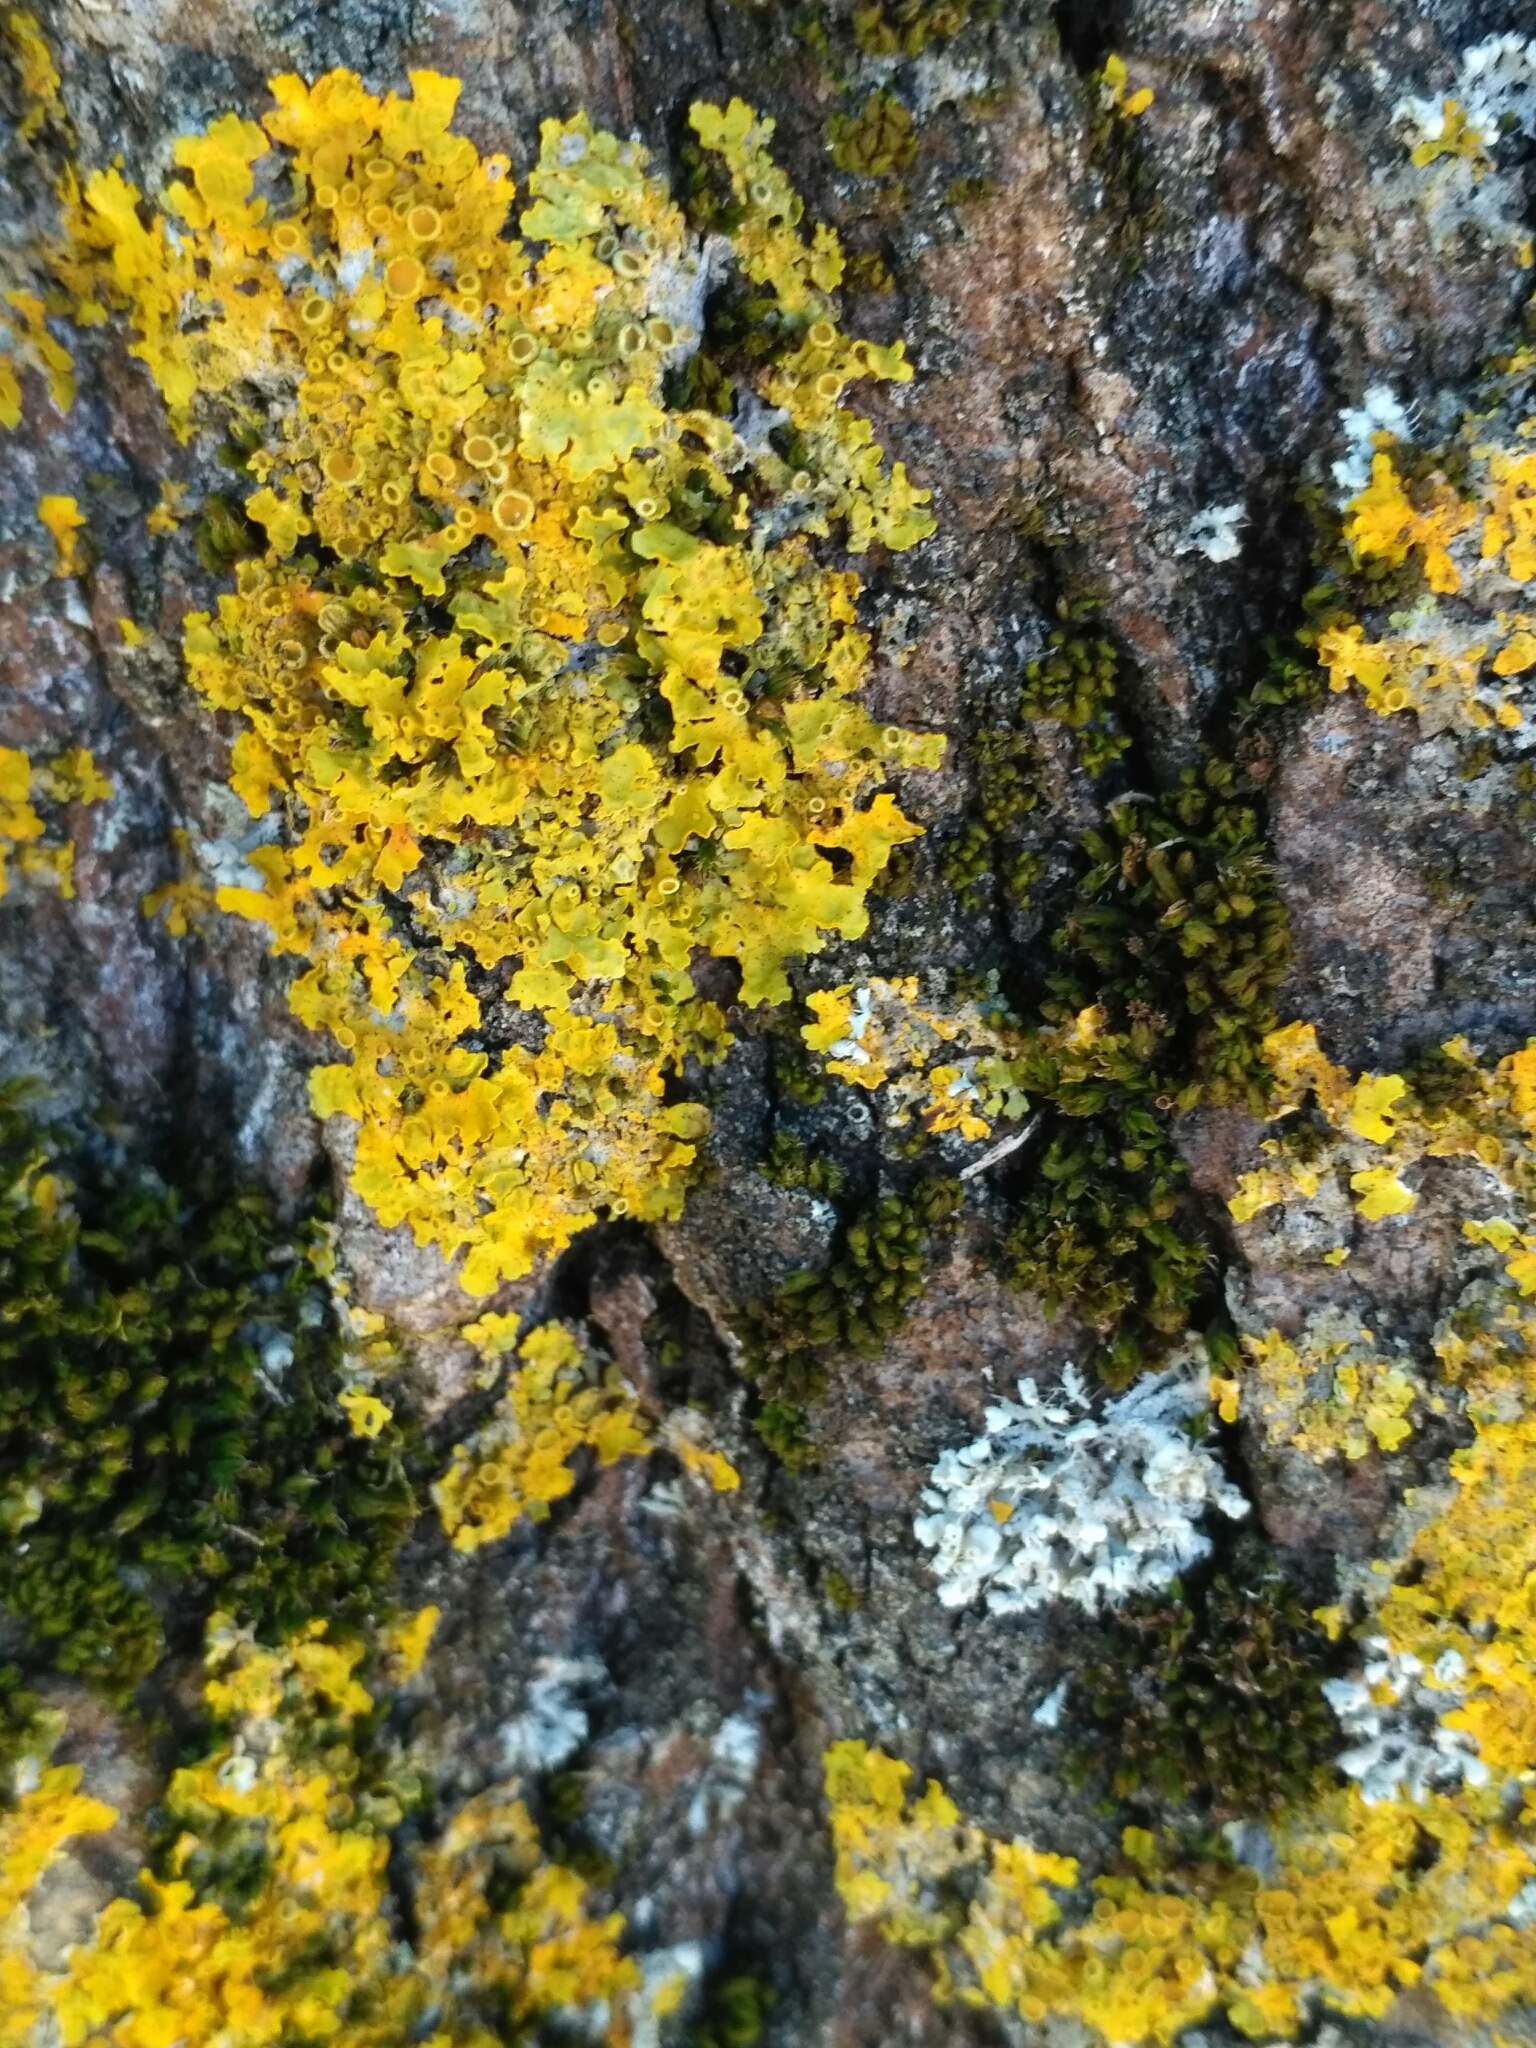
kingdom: Fungi
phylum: Ascomycota
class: Lecanoromycetes
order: Teloschistales
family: Teloschistaceae
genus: Xanthoria
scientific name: Xanthoria parietina
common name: Common orange lichen
